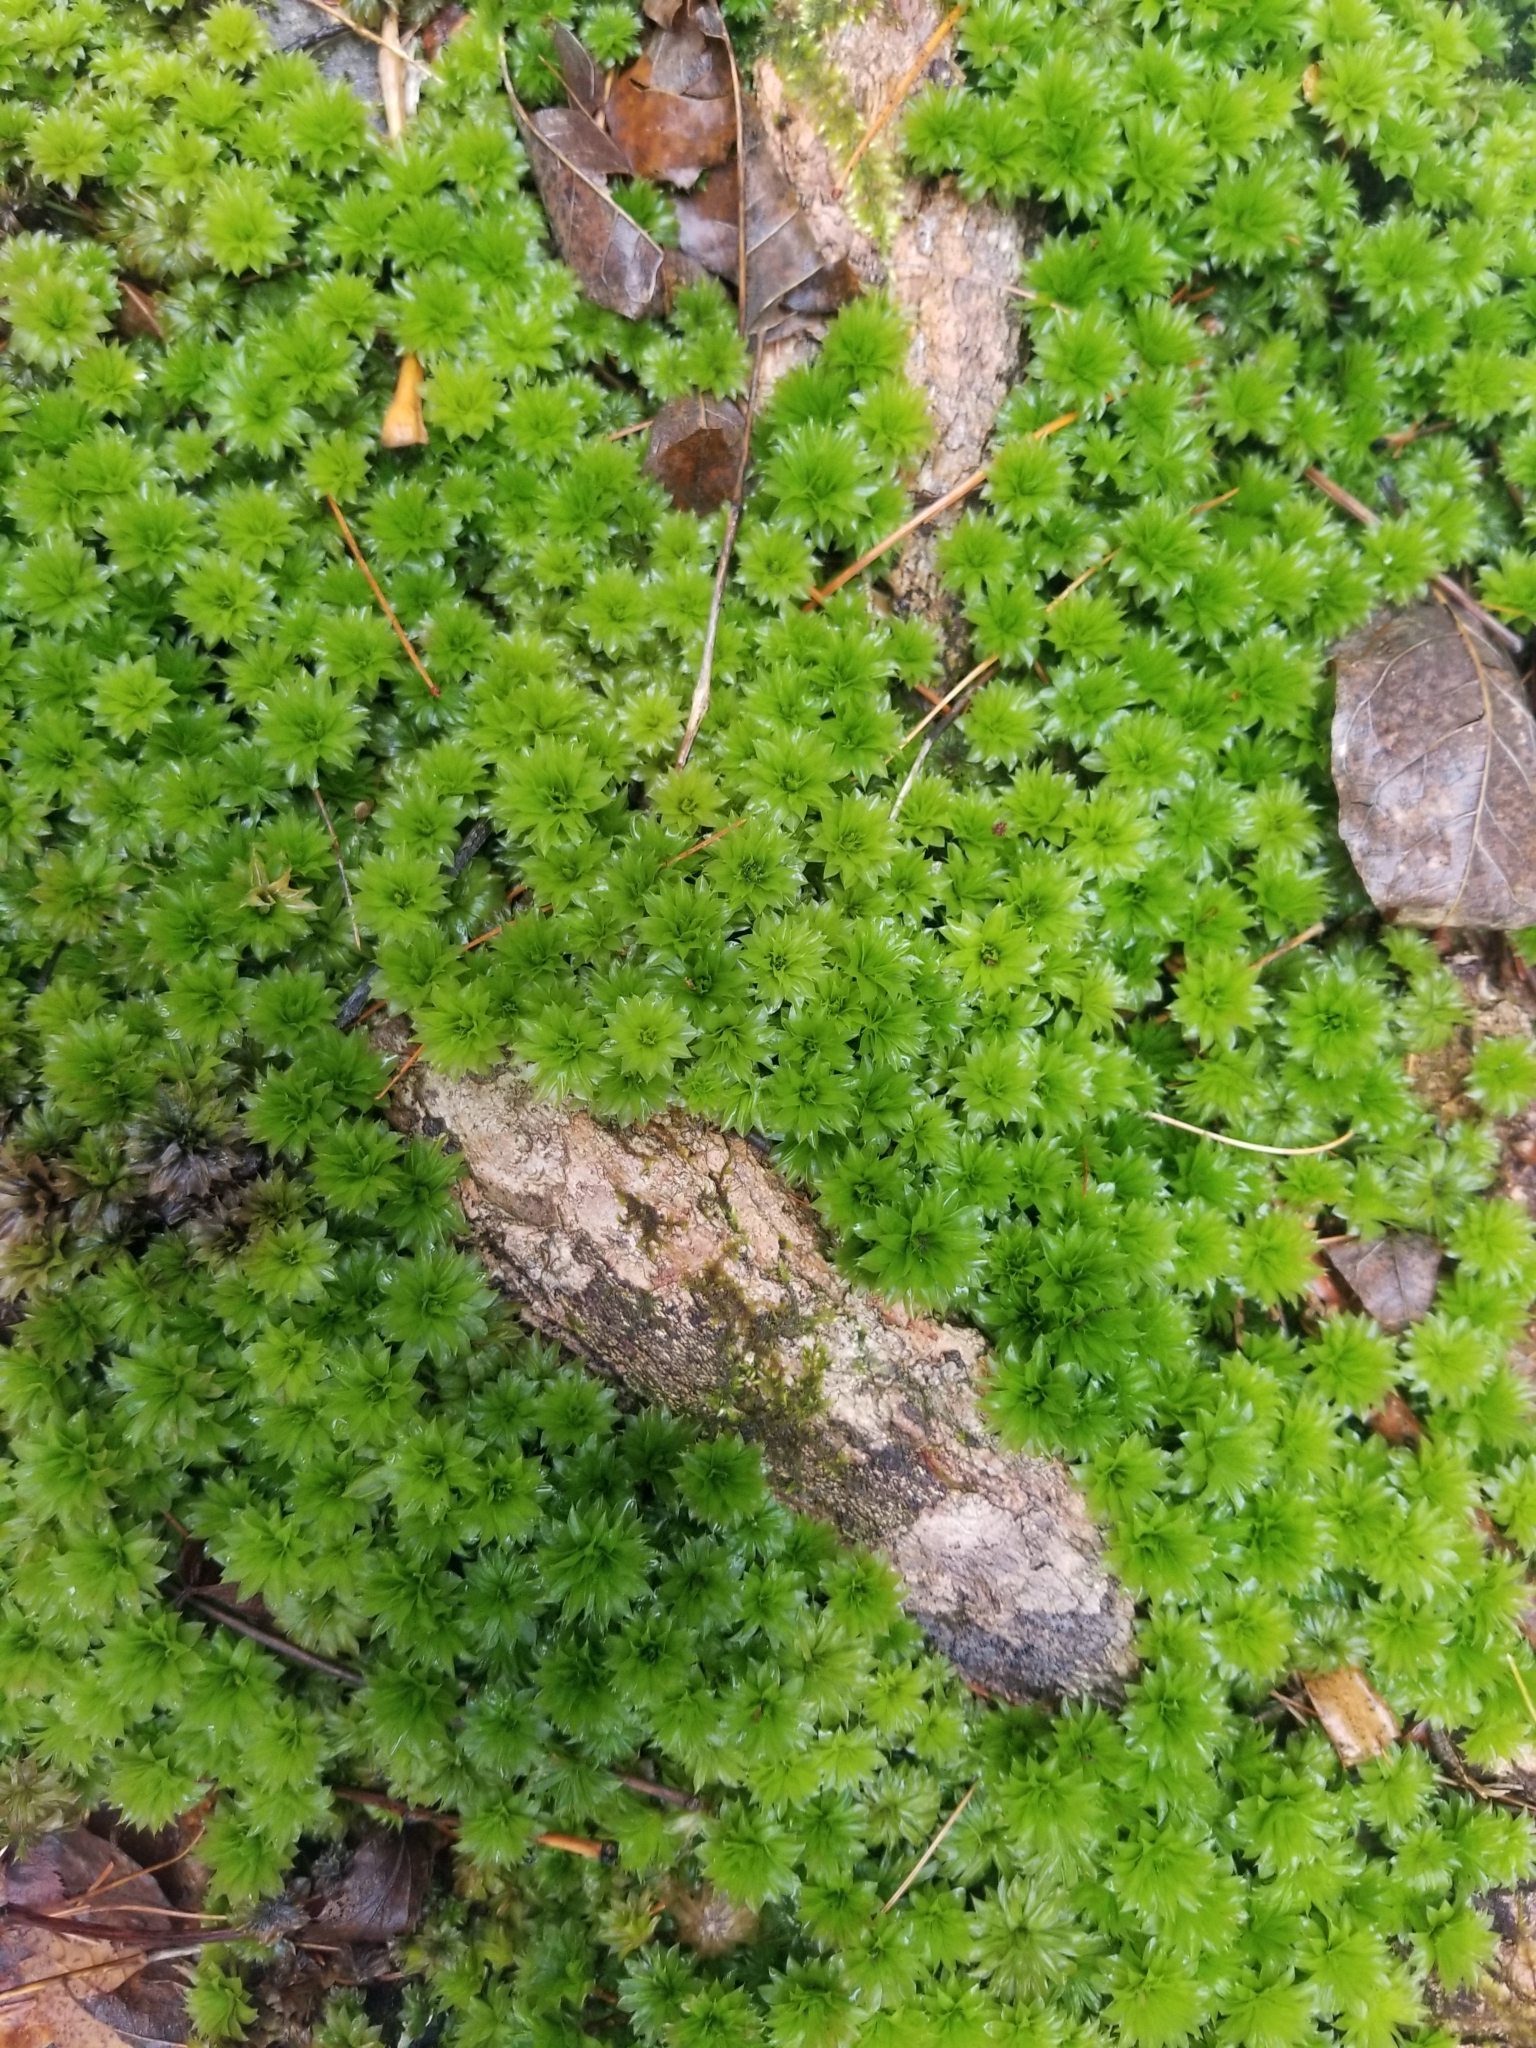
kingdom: Plantae
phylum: Bryophyta
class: Bryopsida
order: Bryales
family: Bryaceae
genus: Rhodobryum
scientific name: Rhodobryum ontariense
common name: Ontario rhodobryum moss
